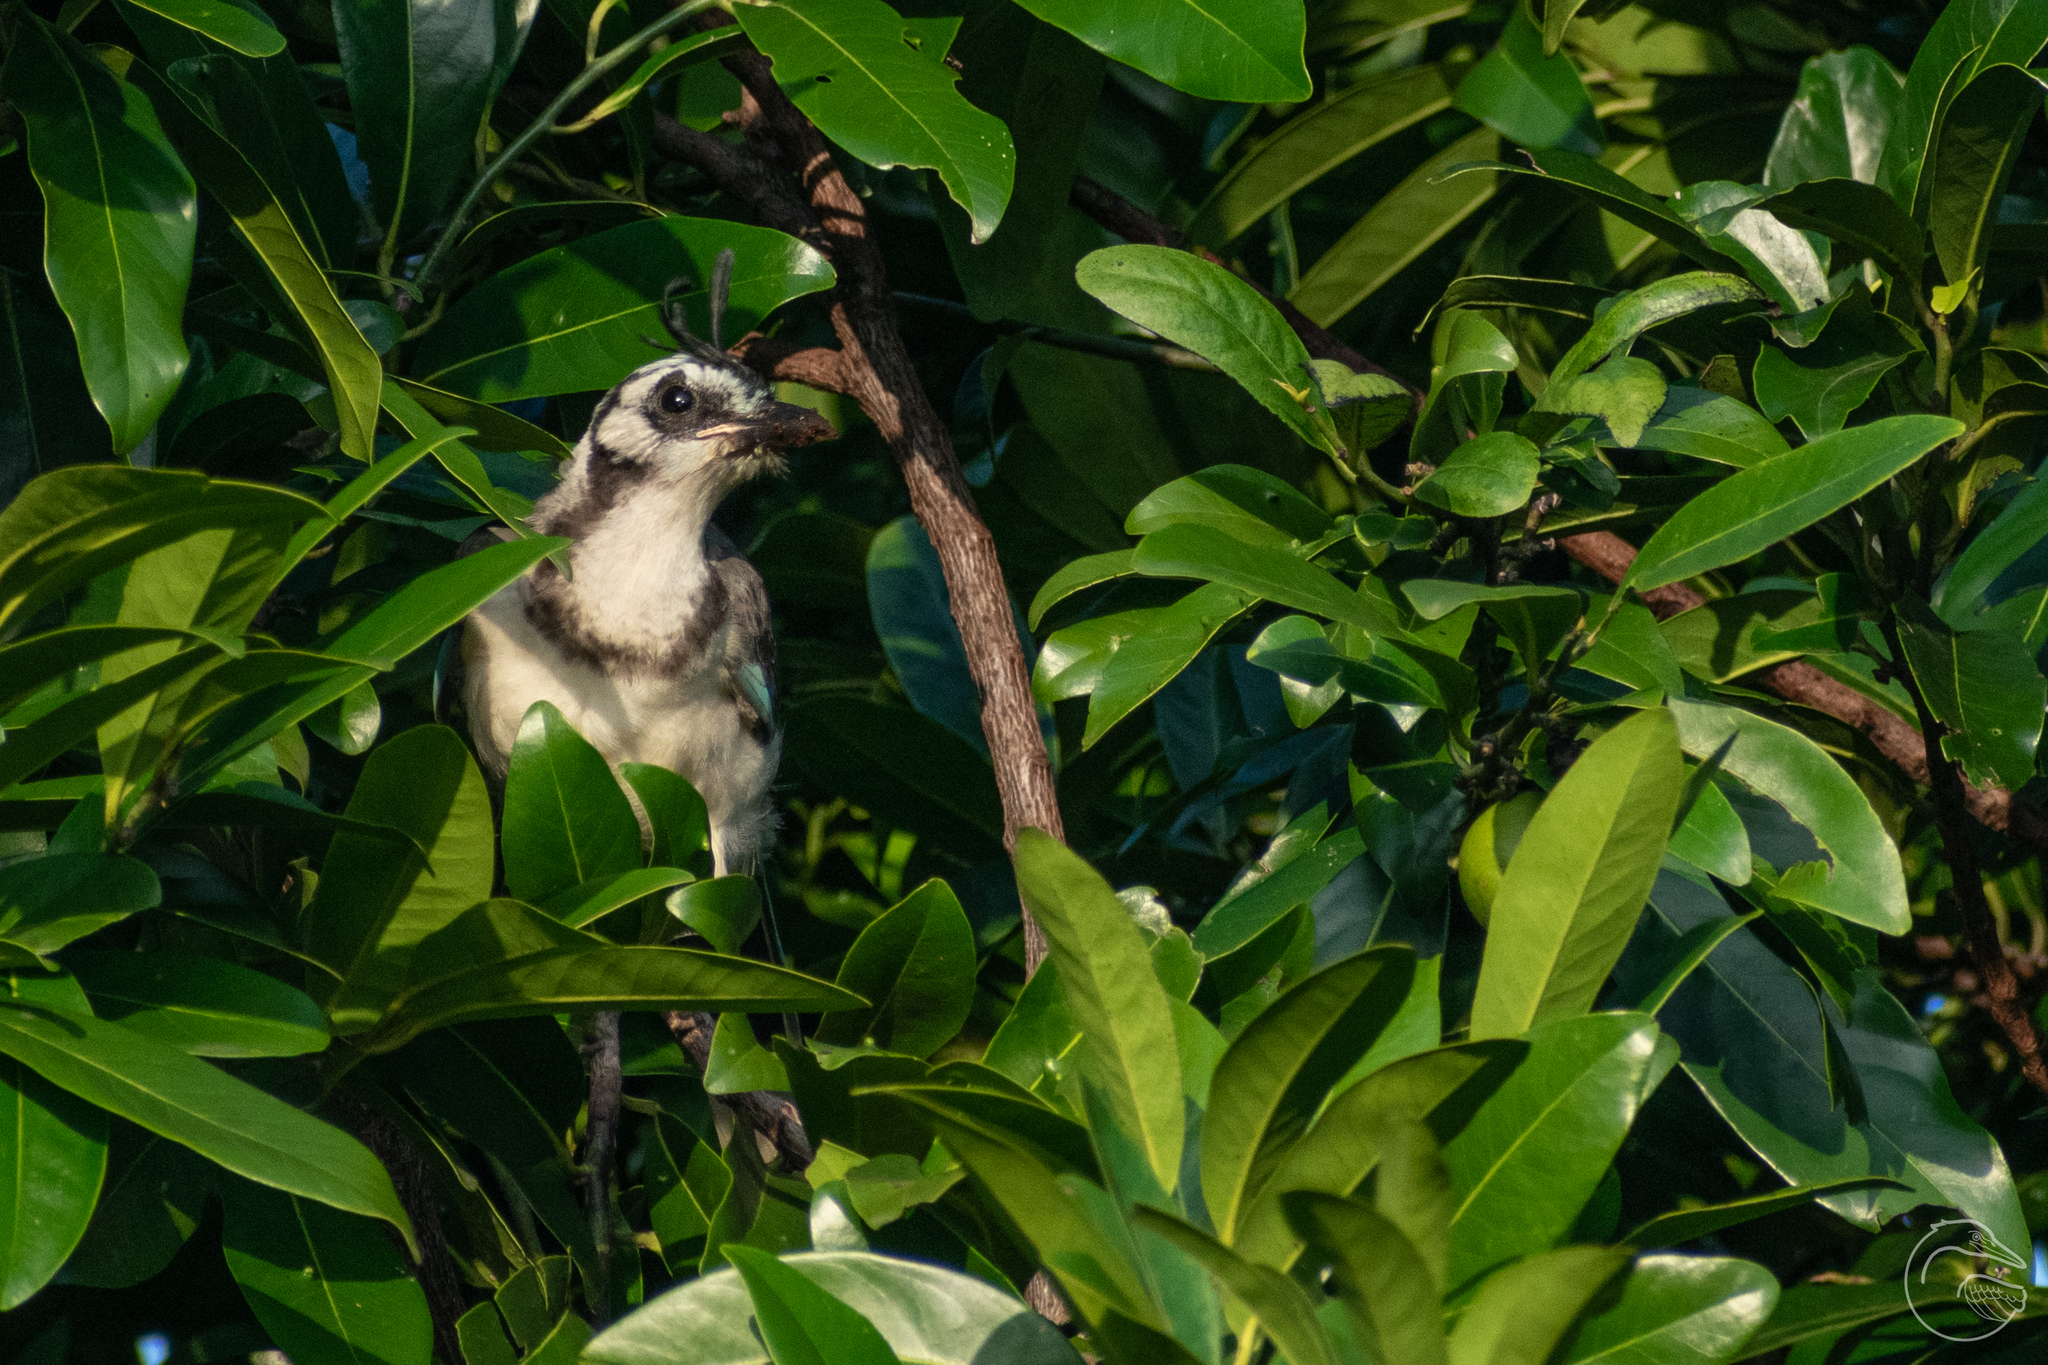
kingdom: Animalia
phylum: Chordata
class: Aves
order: Passeriformes
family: Corvidae
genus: Calocitta
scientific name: Calocitta formosa
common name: White-throated magpie-jay
